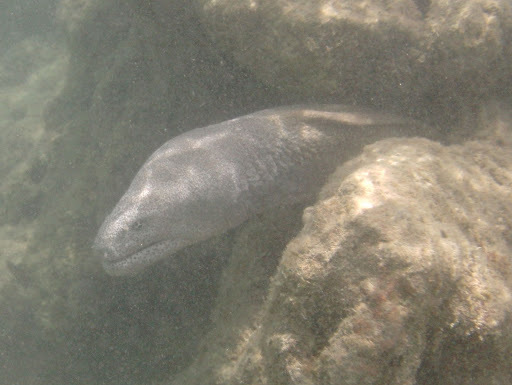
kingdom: Animalia
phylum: Chordata
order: Anguilliformes
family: Muraenidae
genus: Gymnothorax
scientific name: Gymnothorax pictus
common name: Peppered moray
